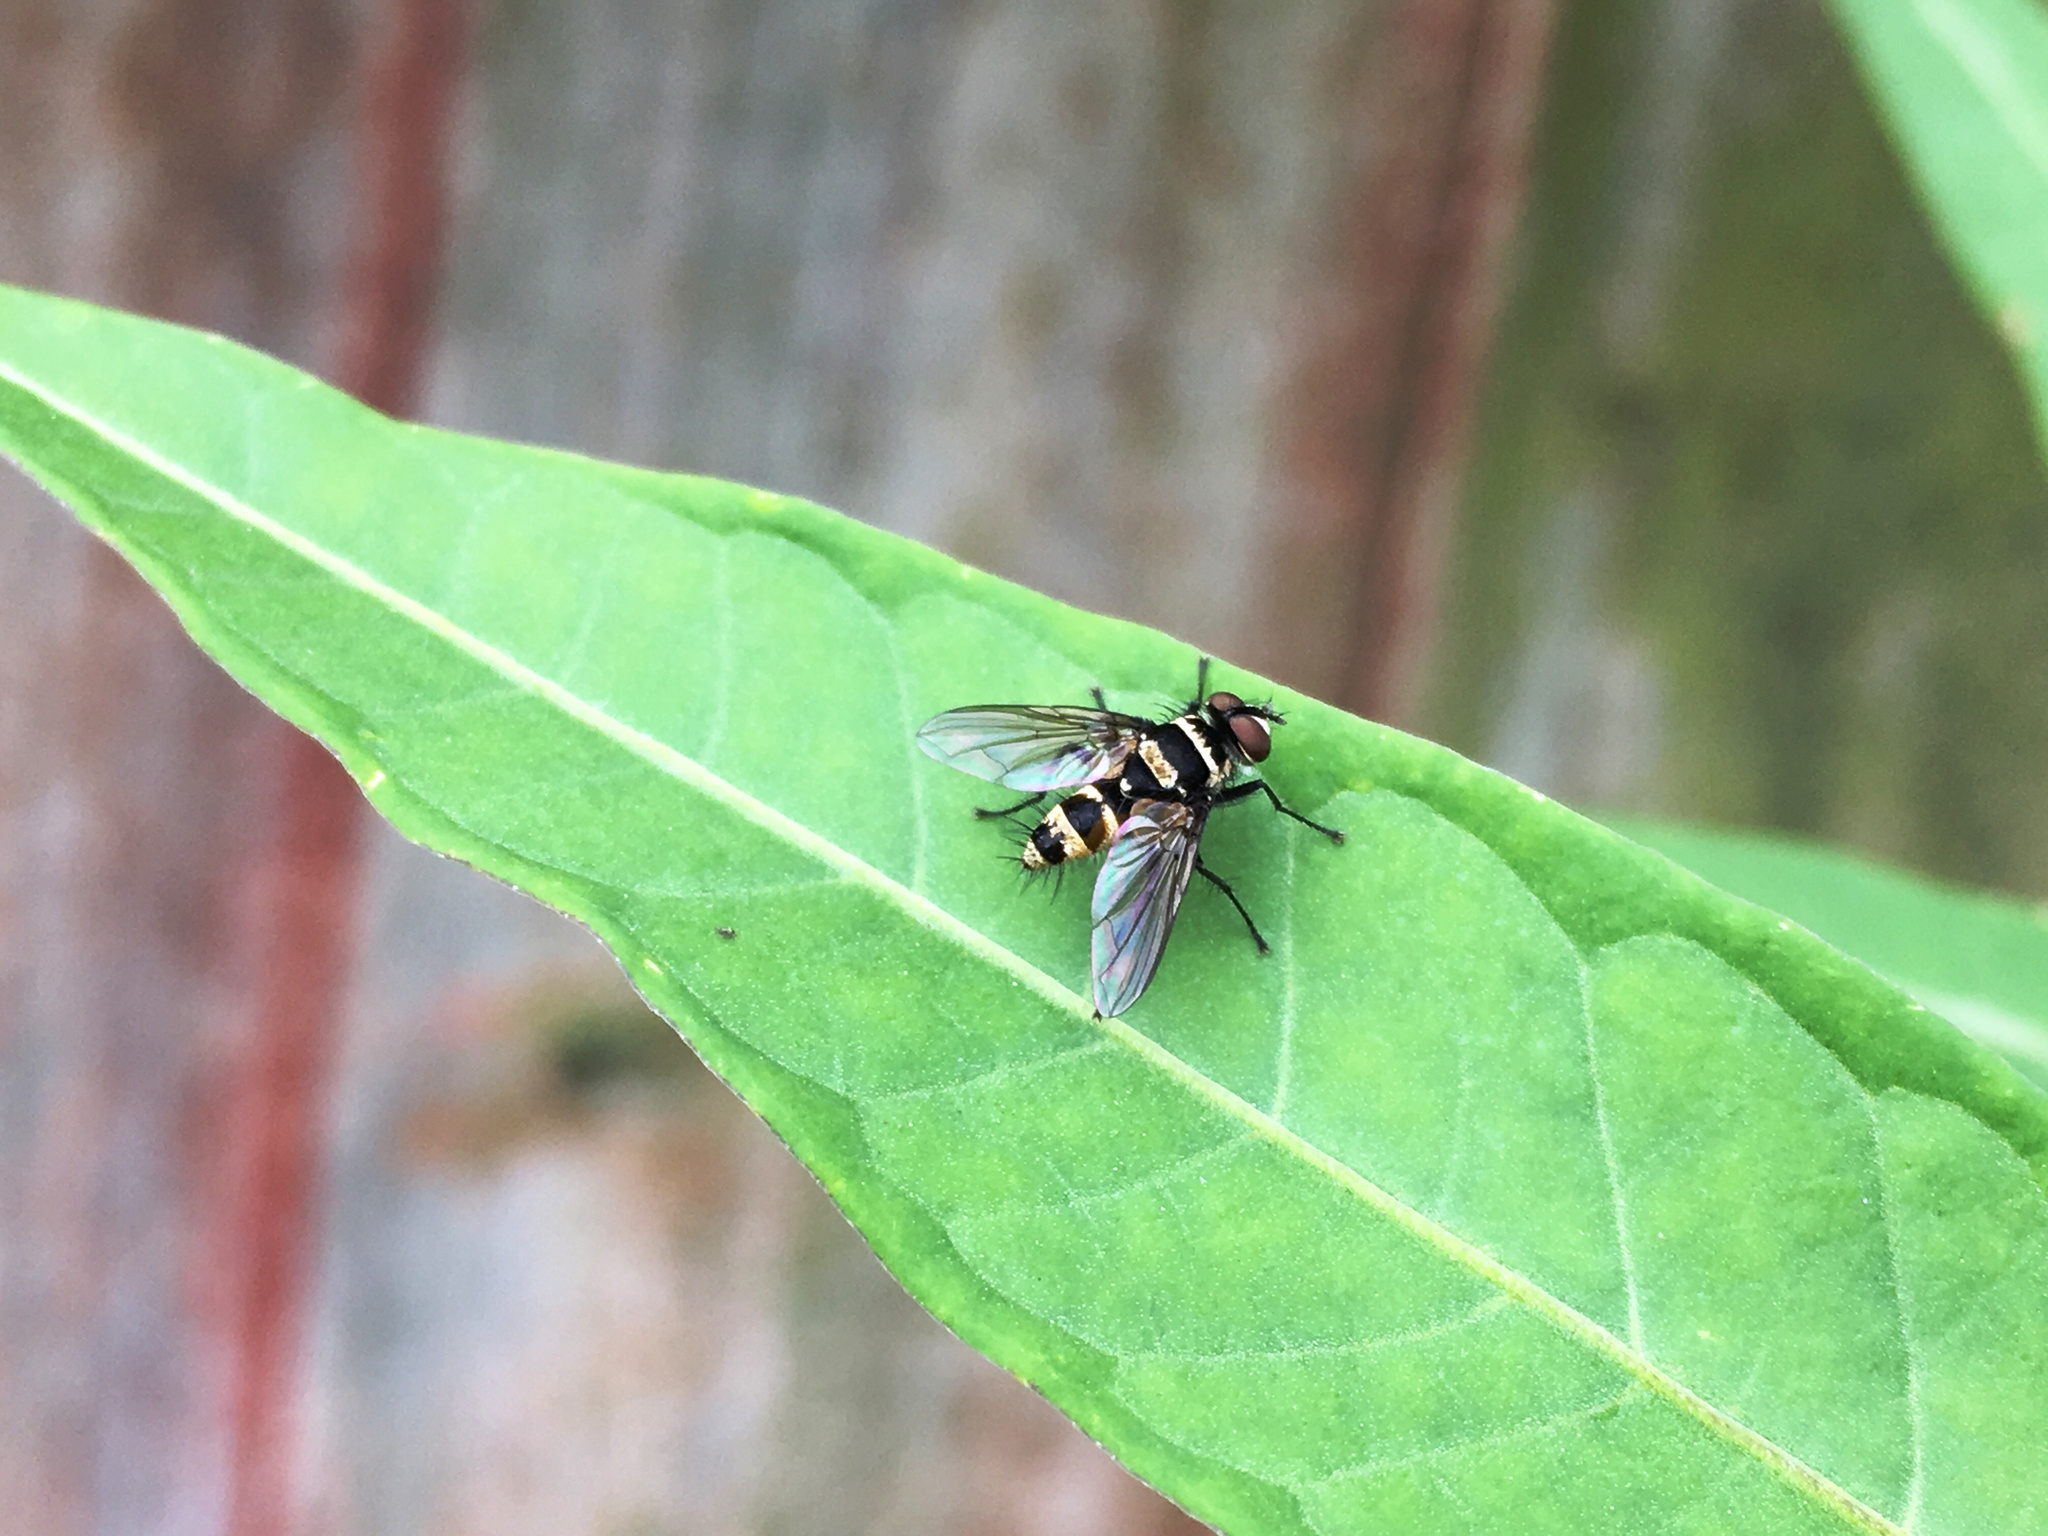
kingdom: Animalia
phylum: Arthropoda
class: Insecta
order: Diptera
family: Tachinidae
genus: Trigonospila
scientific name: Trigonospila brevifacies
